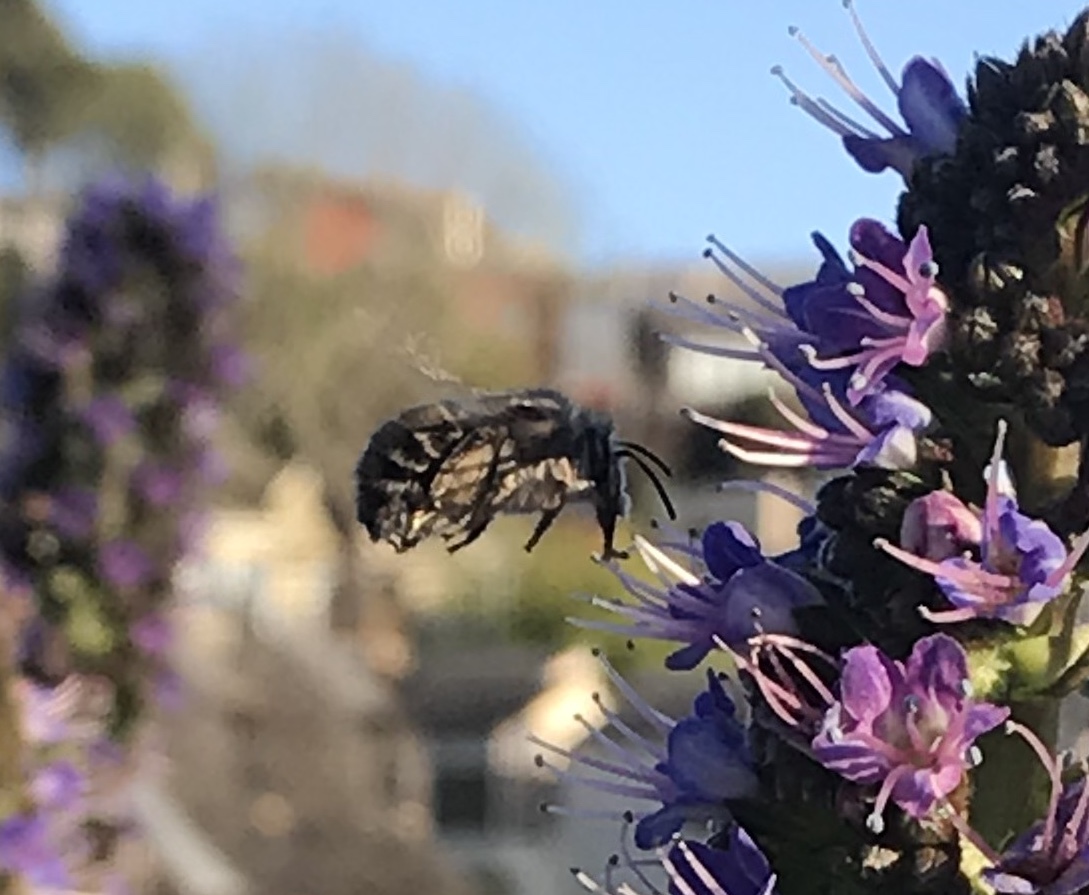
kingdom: Animalia
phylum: Arthropoda
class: Insecta
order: Hymenoptera
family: Apidae
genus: Anthophora
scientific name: Anthophora urbana
